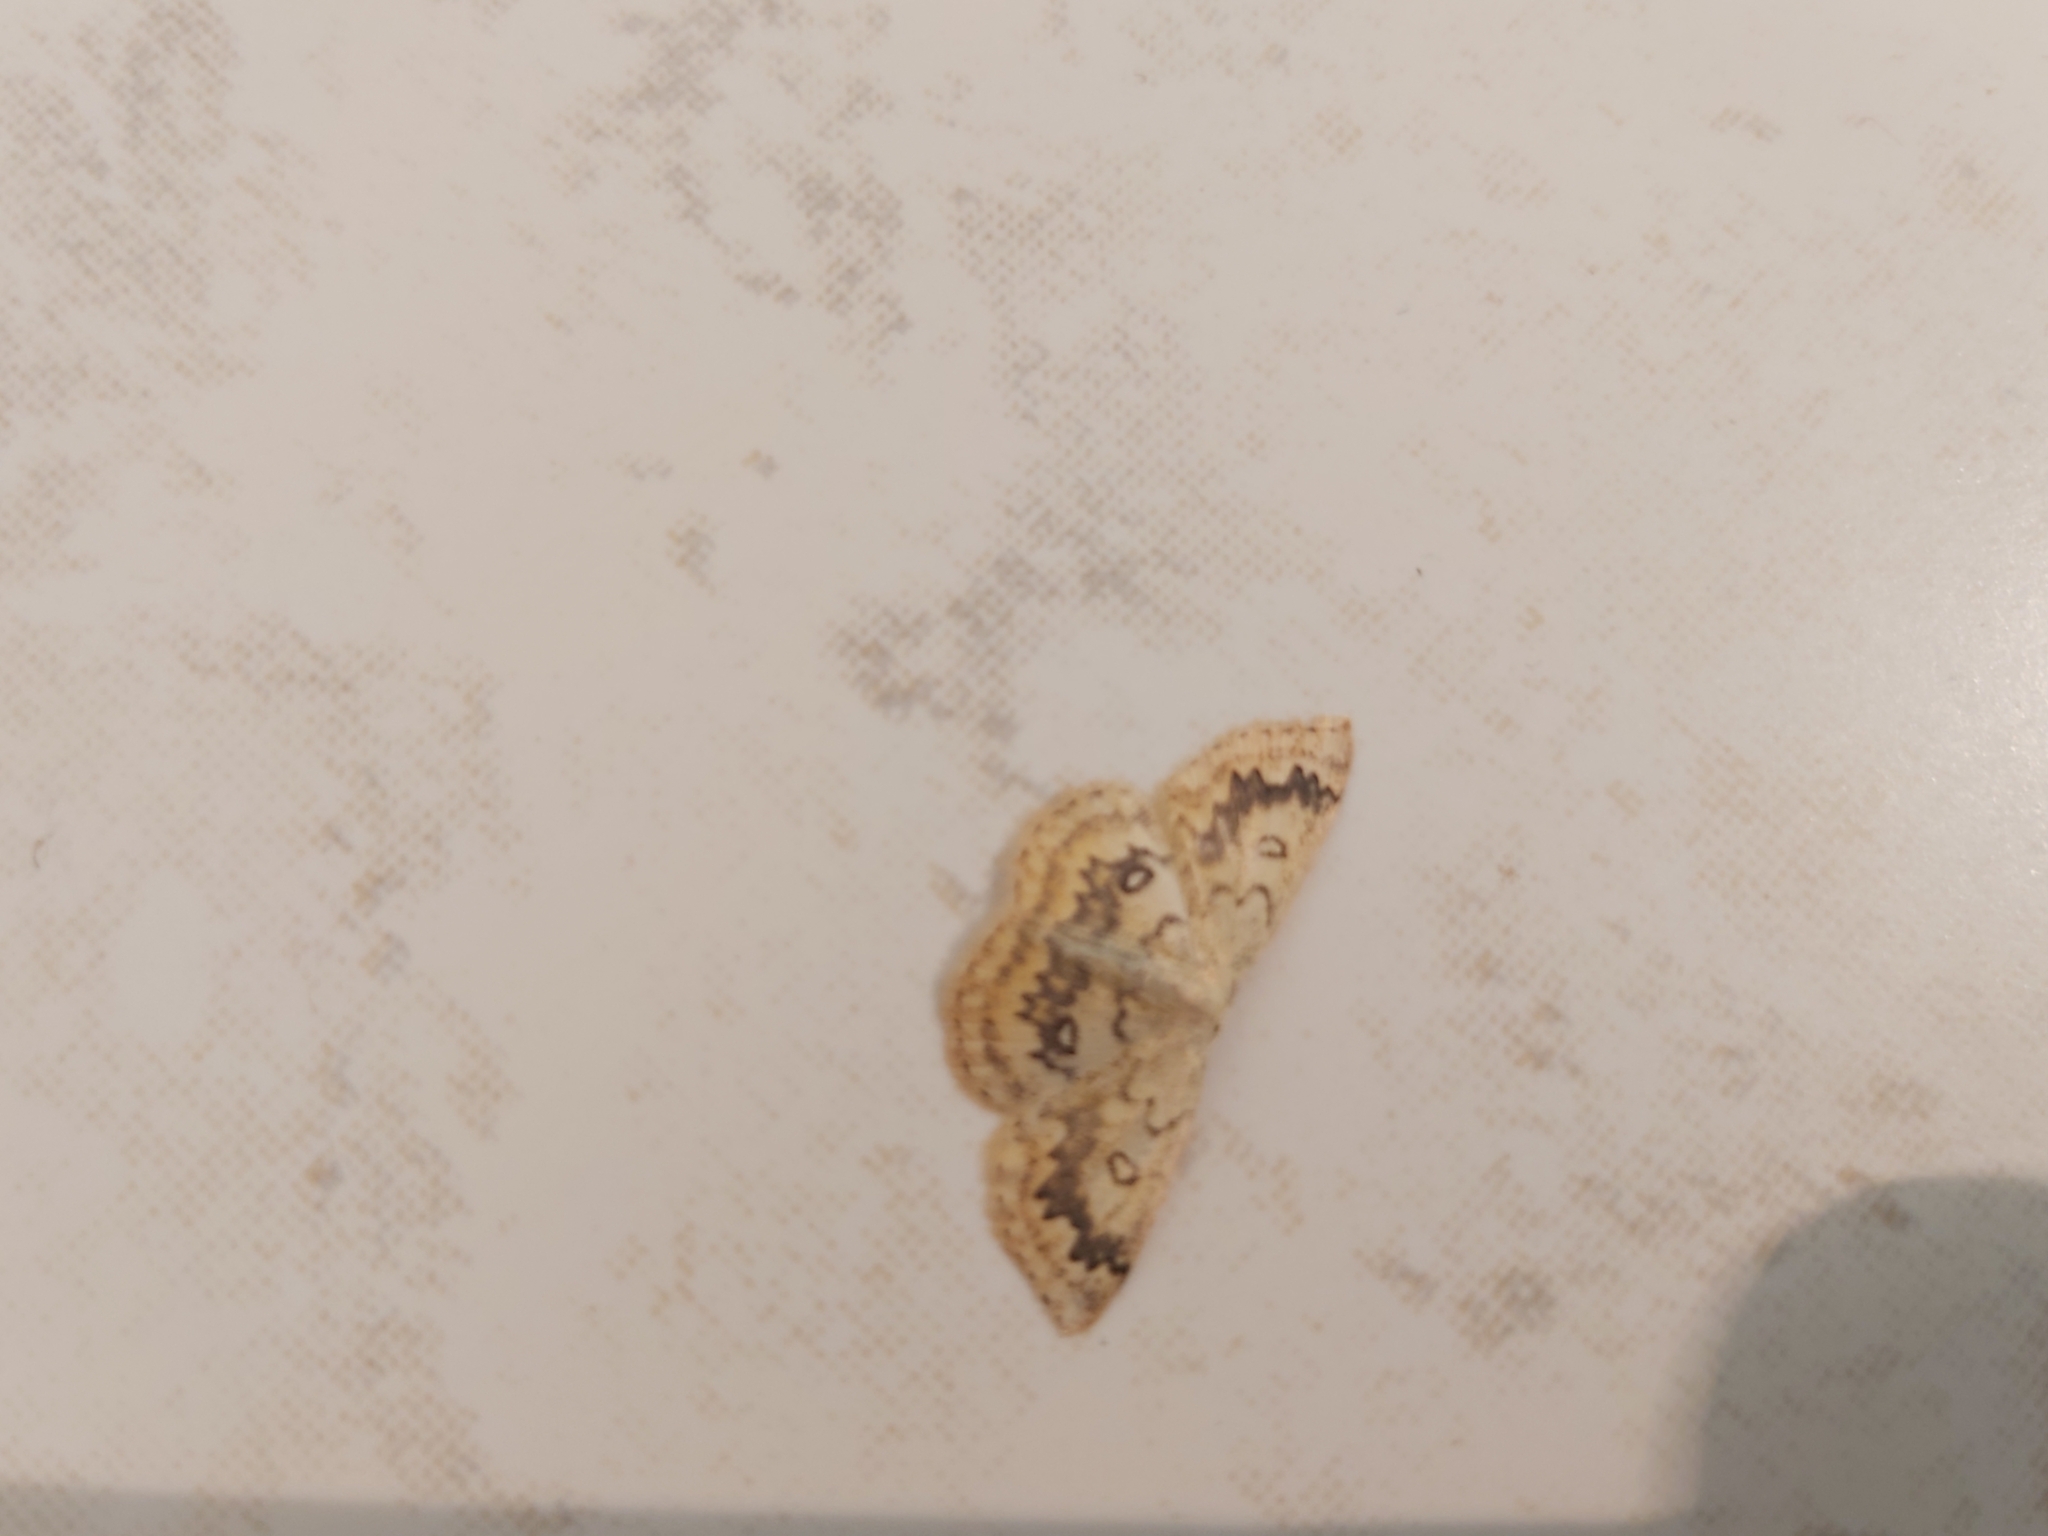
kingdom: Animalia
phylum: Arthropoda
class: Insecta
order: Lepidoptera
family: Geometridae
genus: Cyclophora
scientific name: Cyclophora annularia
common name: Mocha
